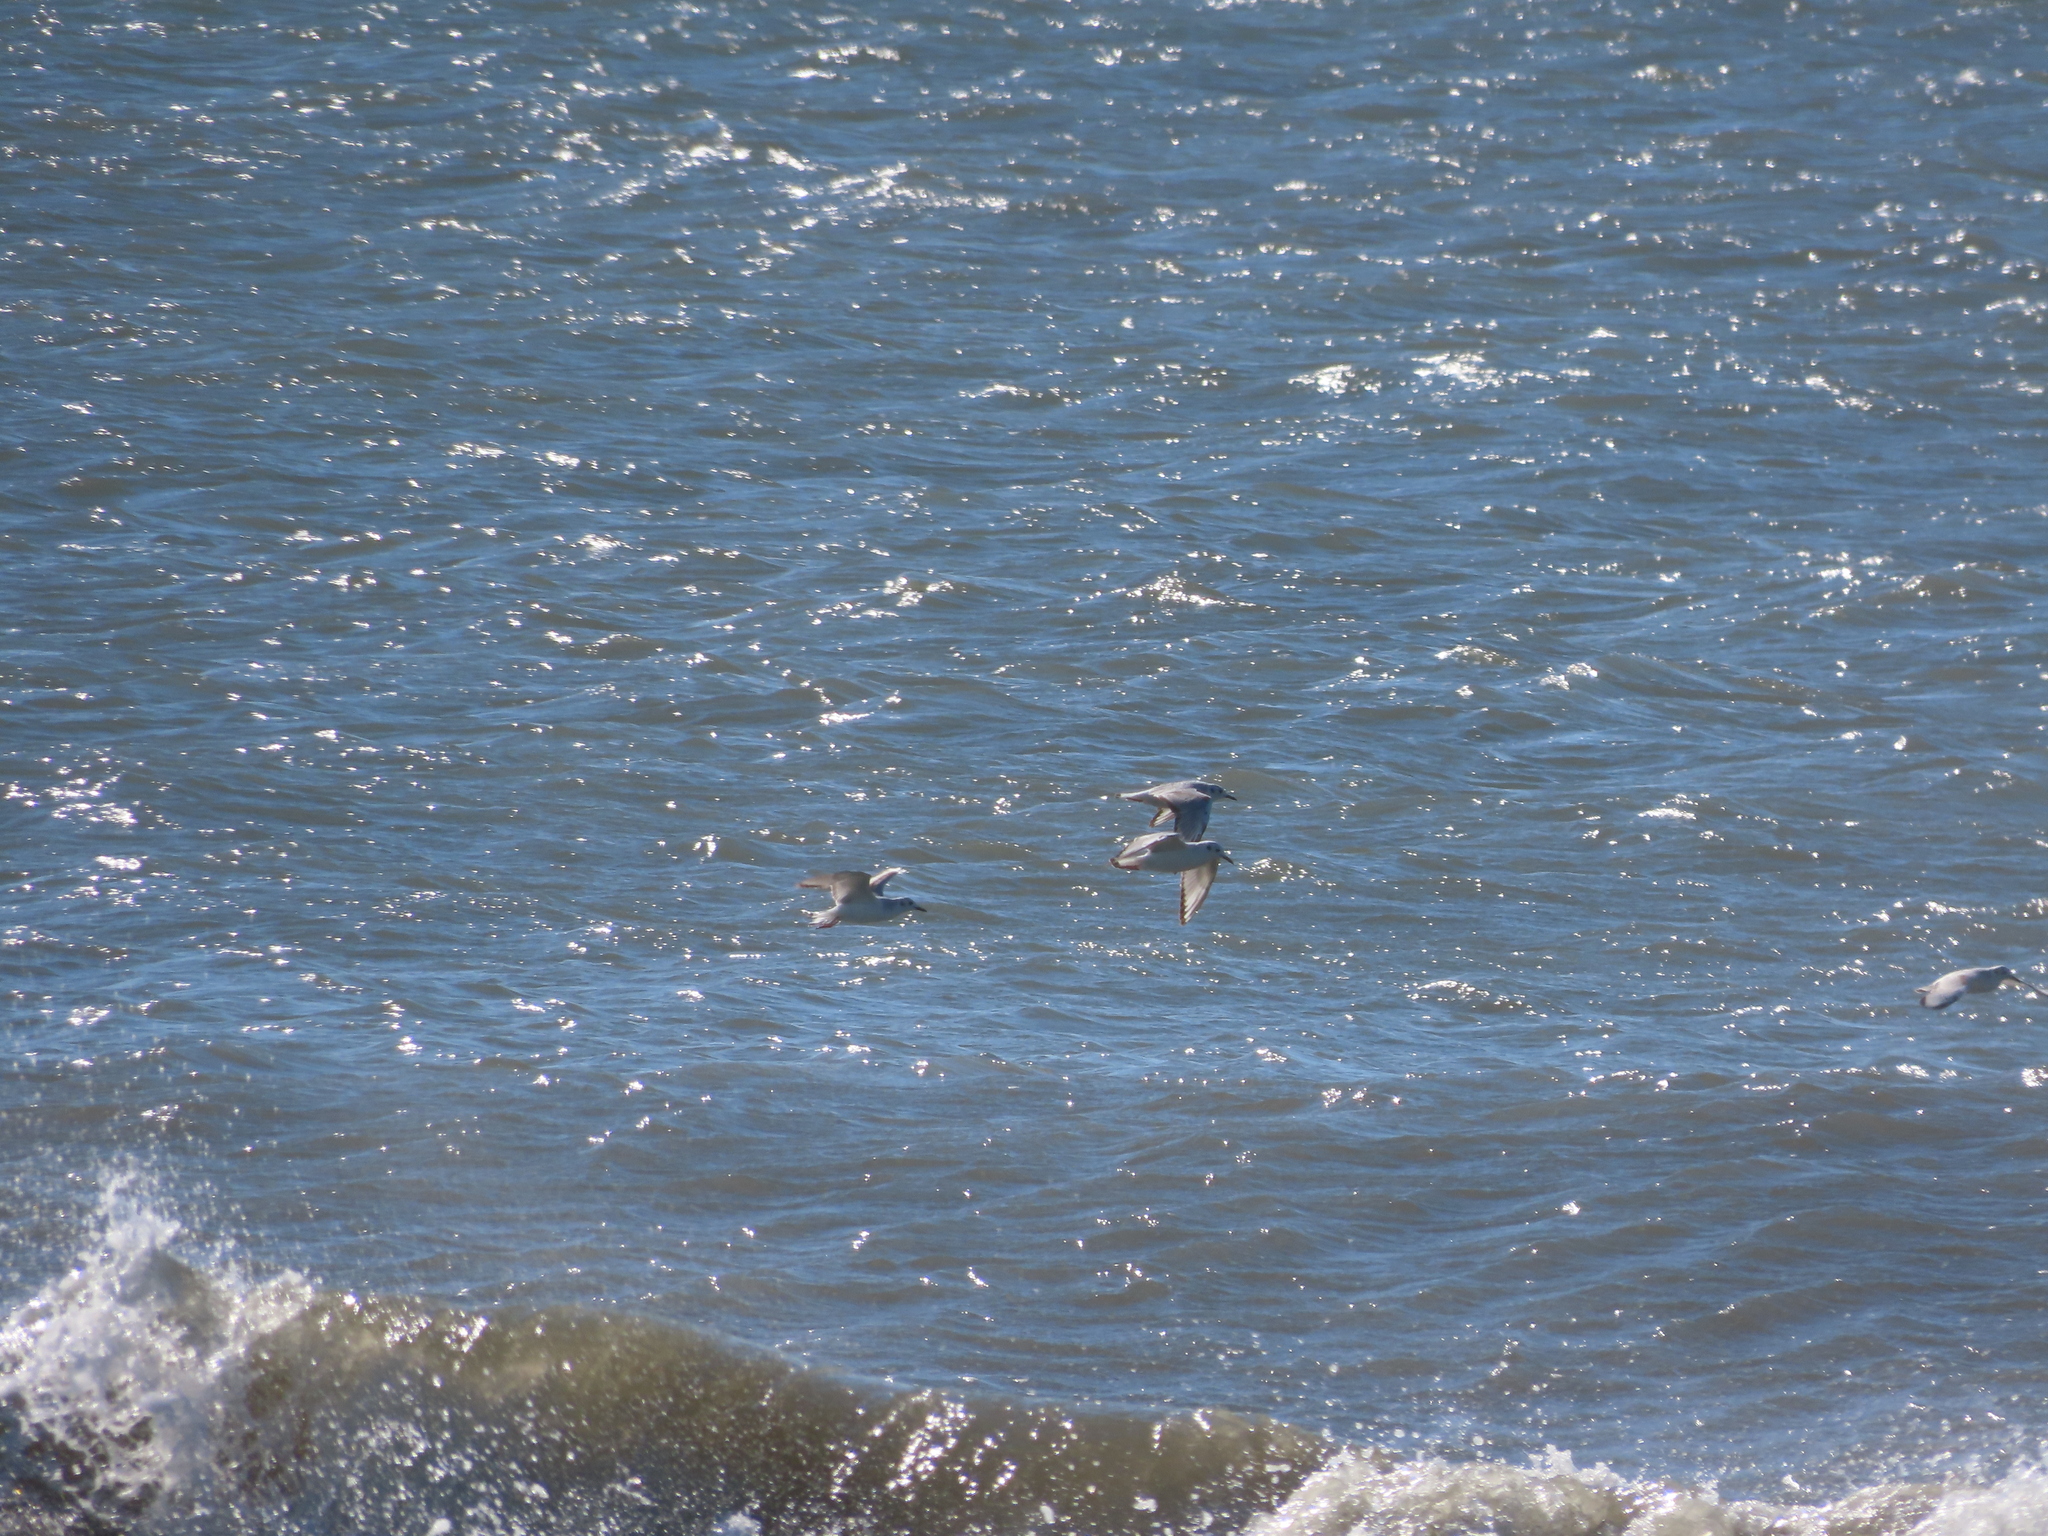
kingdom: Animalia
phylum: Chordata
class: Aves
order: Charadriiformes
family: Laridae
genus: Chroicocephalus
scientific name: Chroicocephalus philadelphia
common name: Bonaparte's gull
